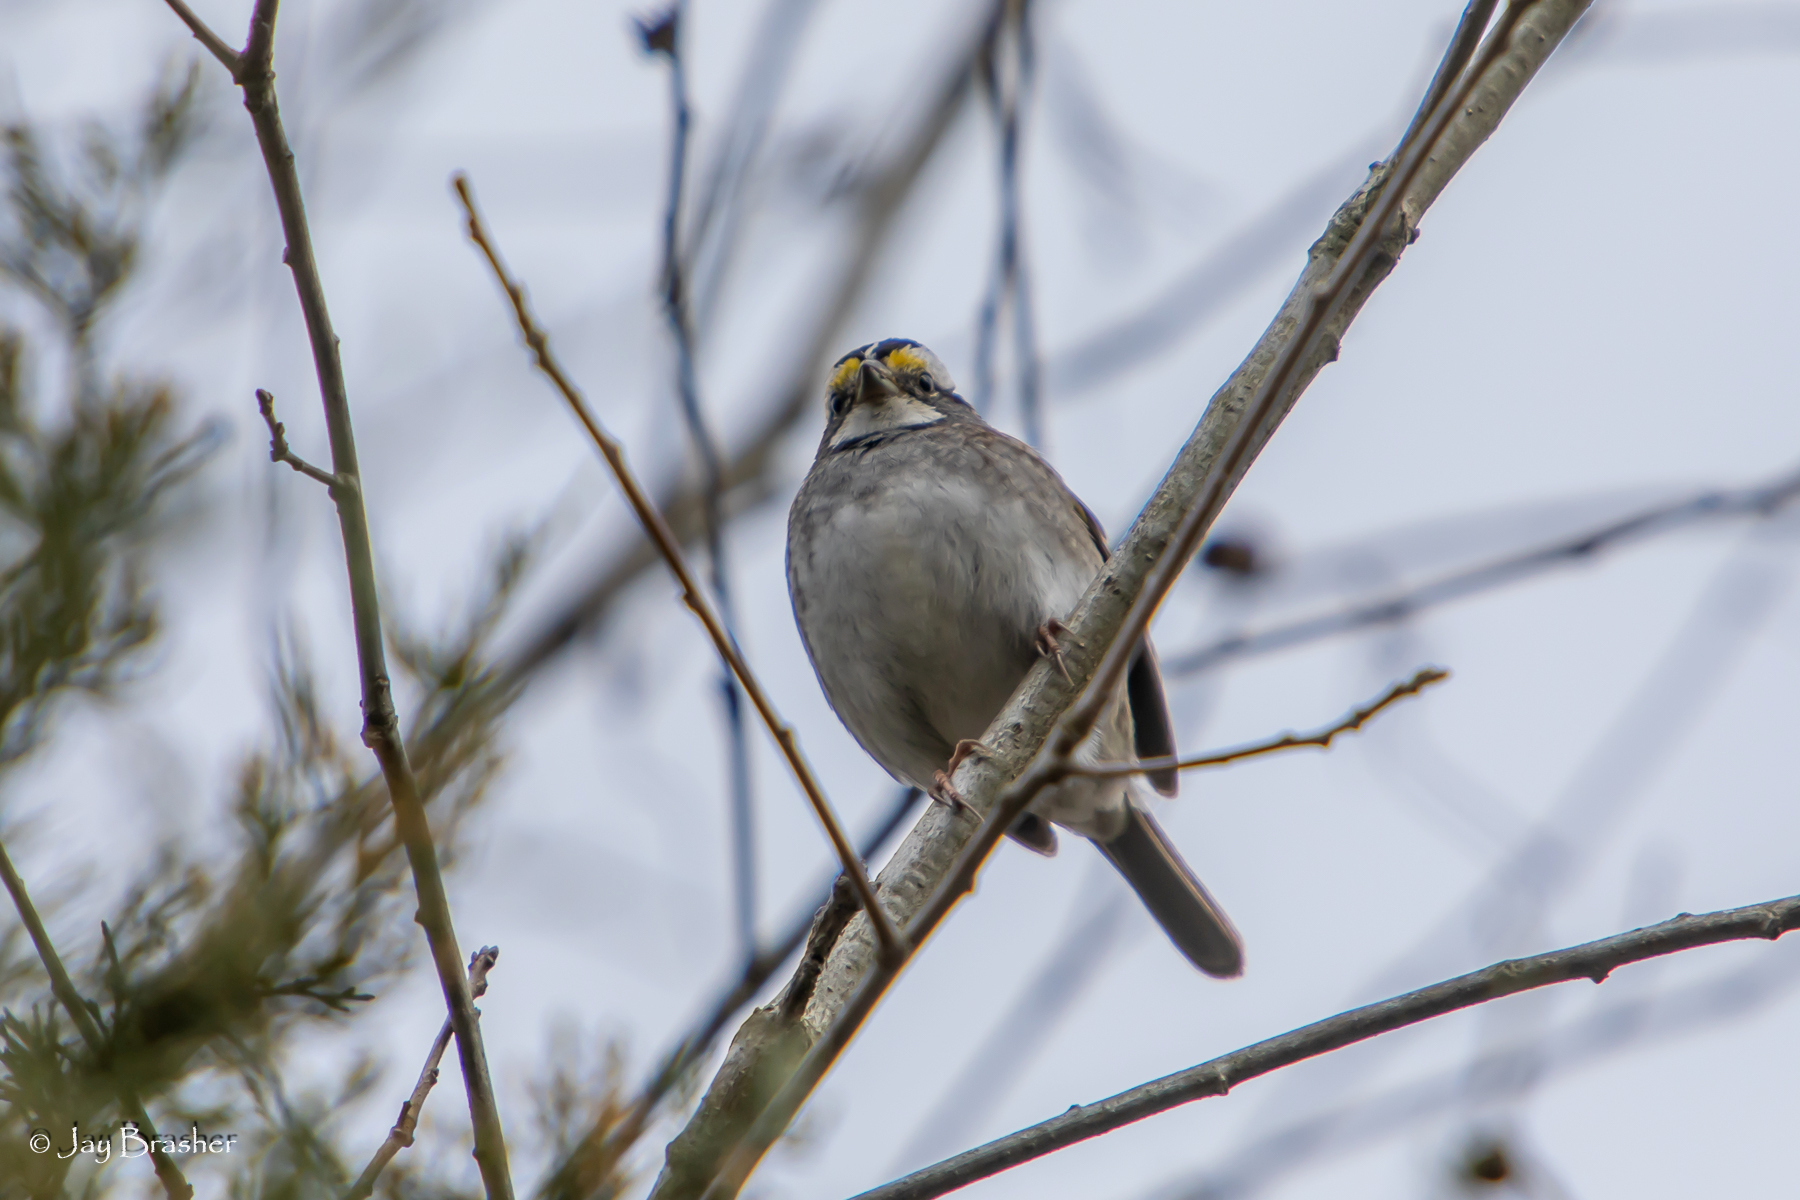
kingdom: Animalia
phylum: Chordata
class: Aves
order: Passeriformes
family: Passerellidae
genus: Zonotrichia
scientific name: Zonotrichia albicollis
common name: White-throated sparrow
